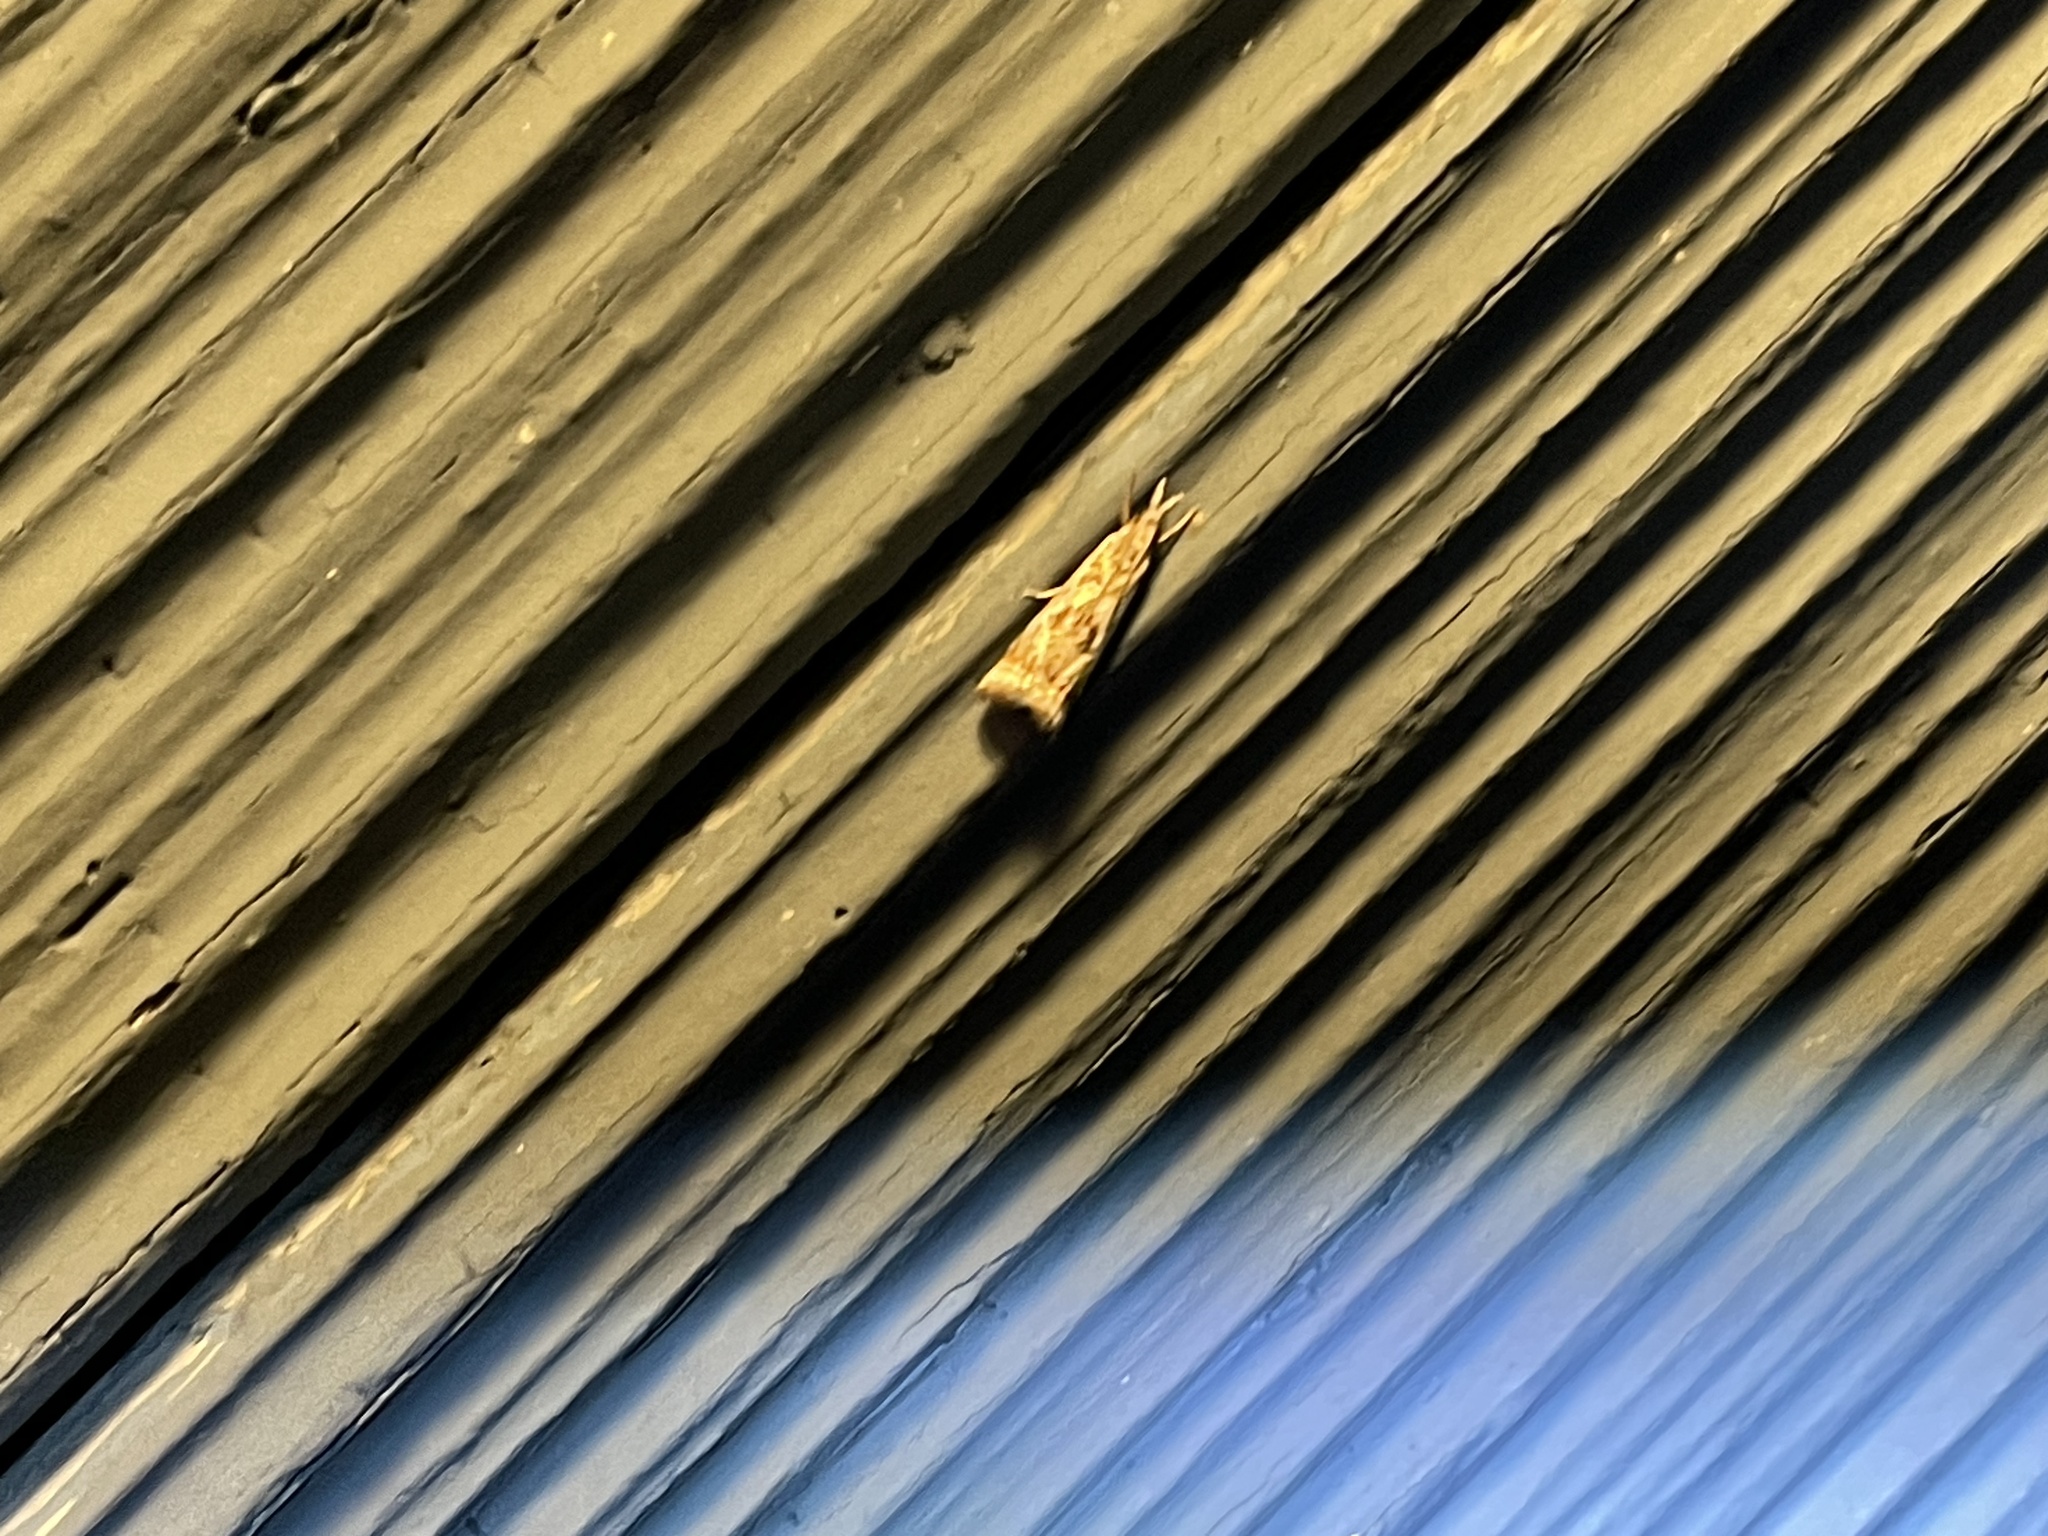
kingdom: Animalia
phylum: Arthropoda
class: Insecta
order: Lepidoptera
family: Crambidae
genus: Microcrambus
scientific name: Microcrambus elegans
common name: Elegant grass-veneer
